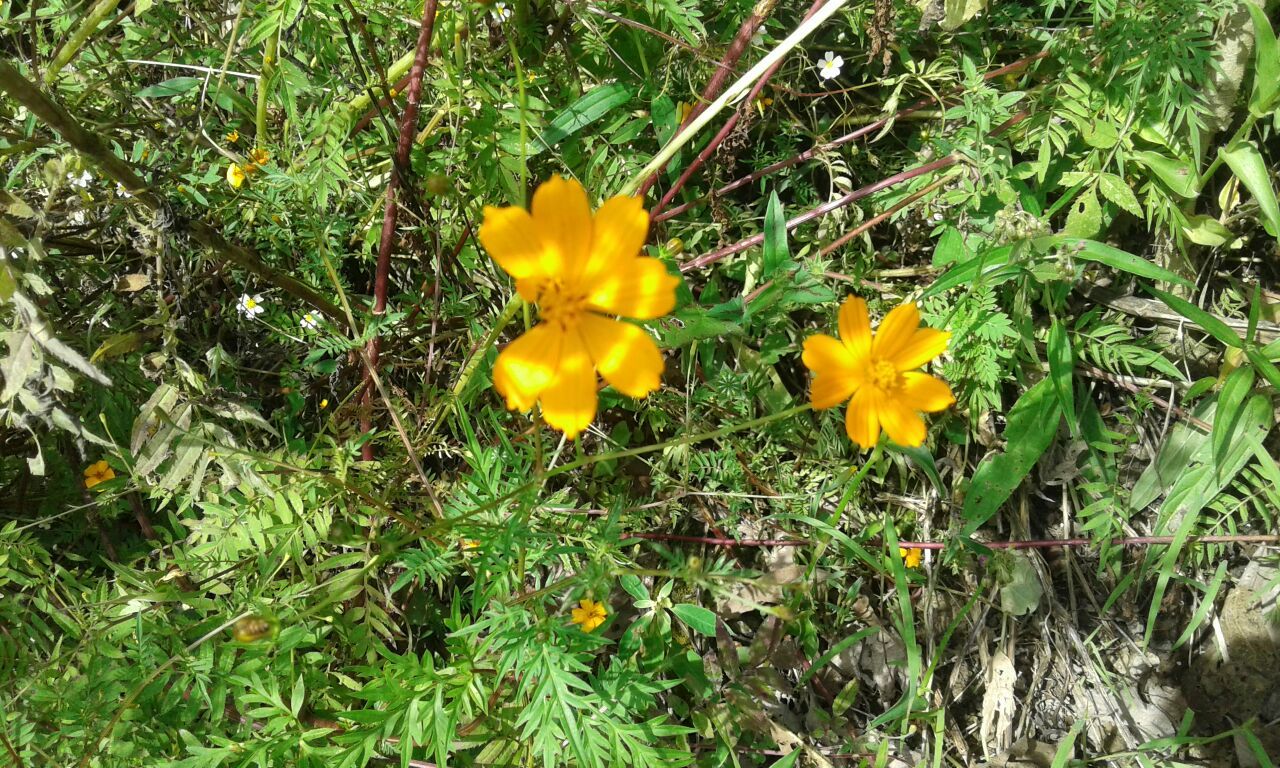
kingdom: Plantae
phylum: Tracheophyta
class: Magnoliopsida
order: Asterales
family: Asteraceae
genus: Cosmos
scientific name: Cosmos sulphureus
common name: Sulphur cosmos
